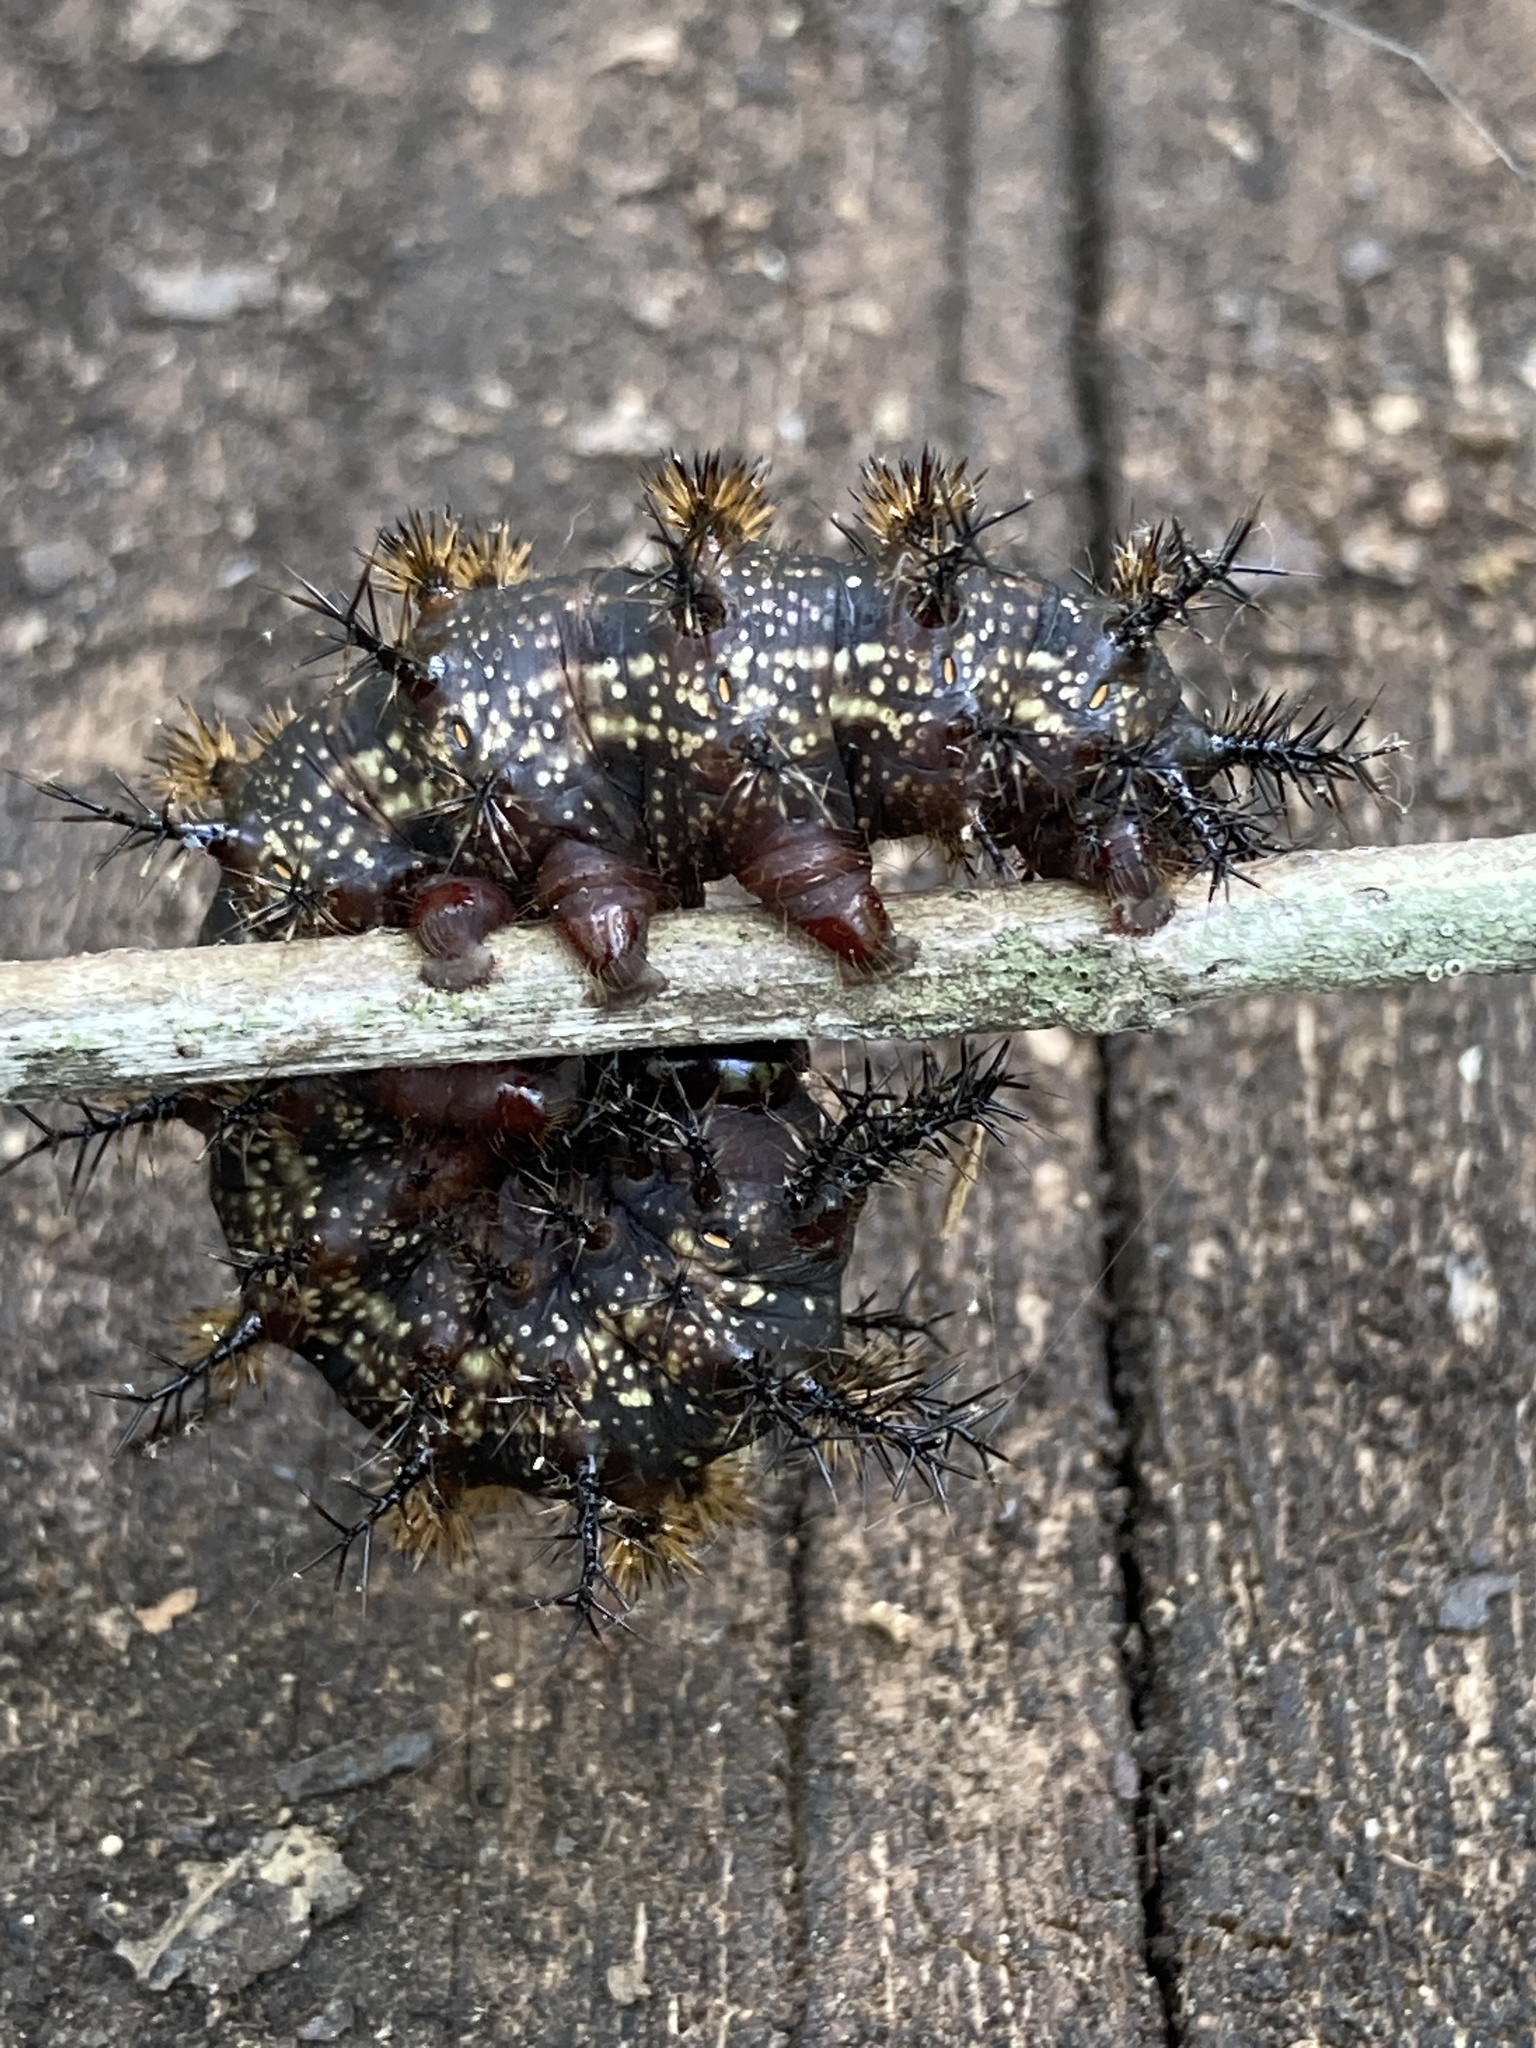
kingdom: Animalia
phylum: Arthropoda
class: Insecta
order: Lepidoptera
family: Saturniidae
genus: Hemileuca
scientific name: Hemileuca maia
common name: Eastern buckmoth
